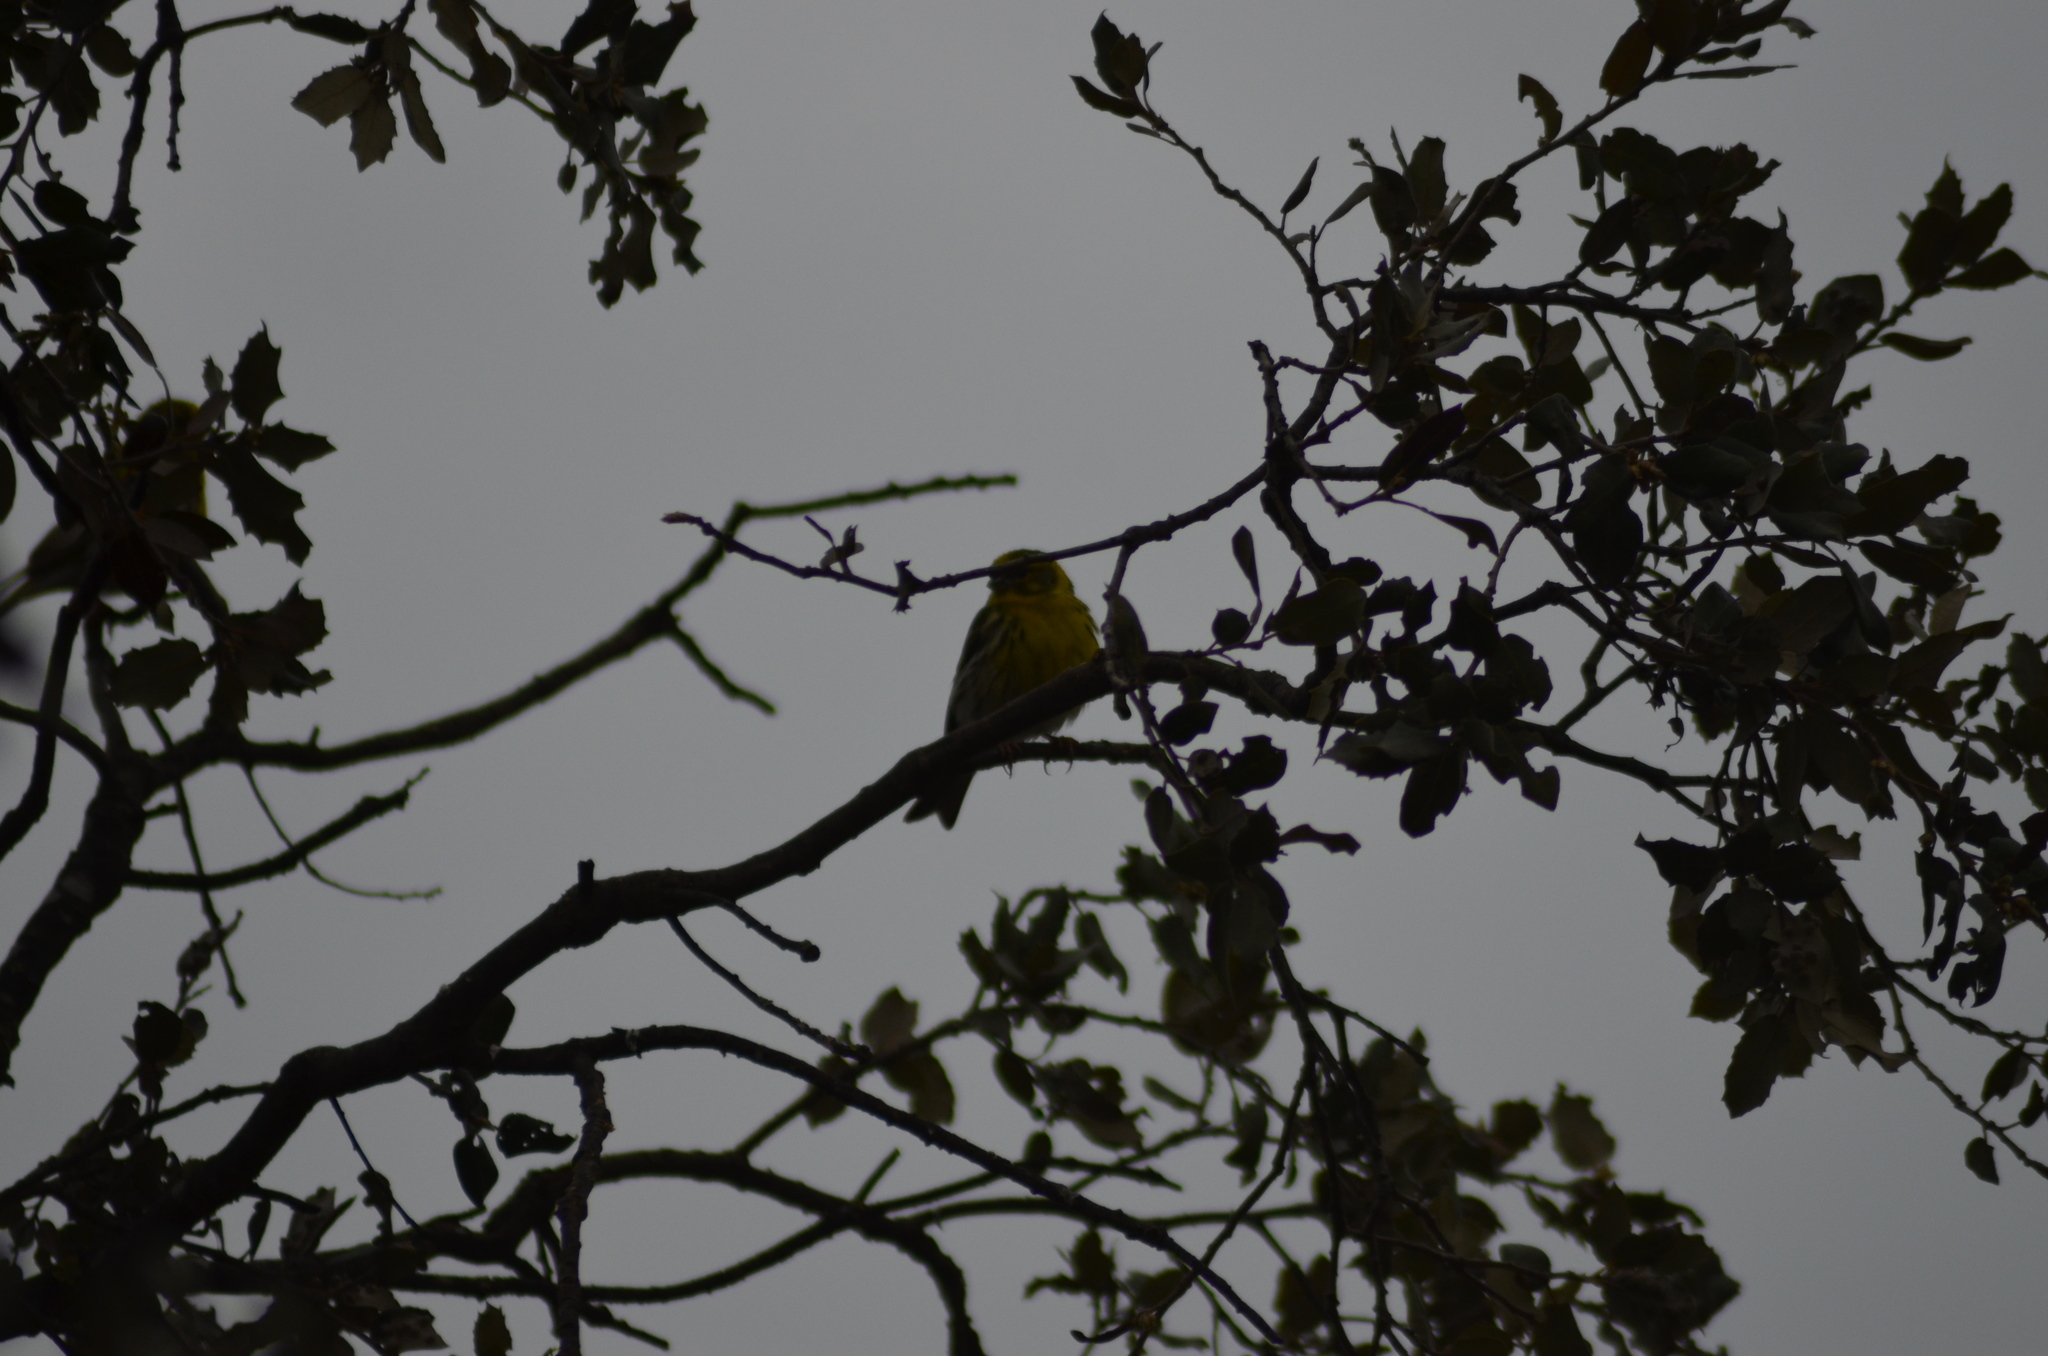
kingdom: Animalia
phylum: Chordata
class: Aves
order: Passeriformes
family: Fringillidae
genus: Serinus
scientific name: Serinus serinus
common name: European serin
